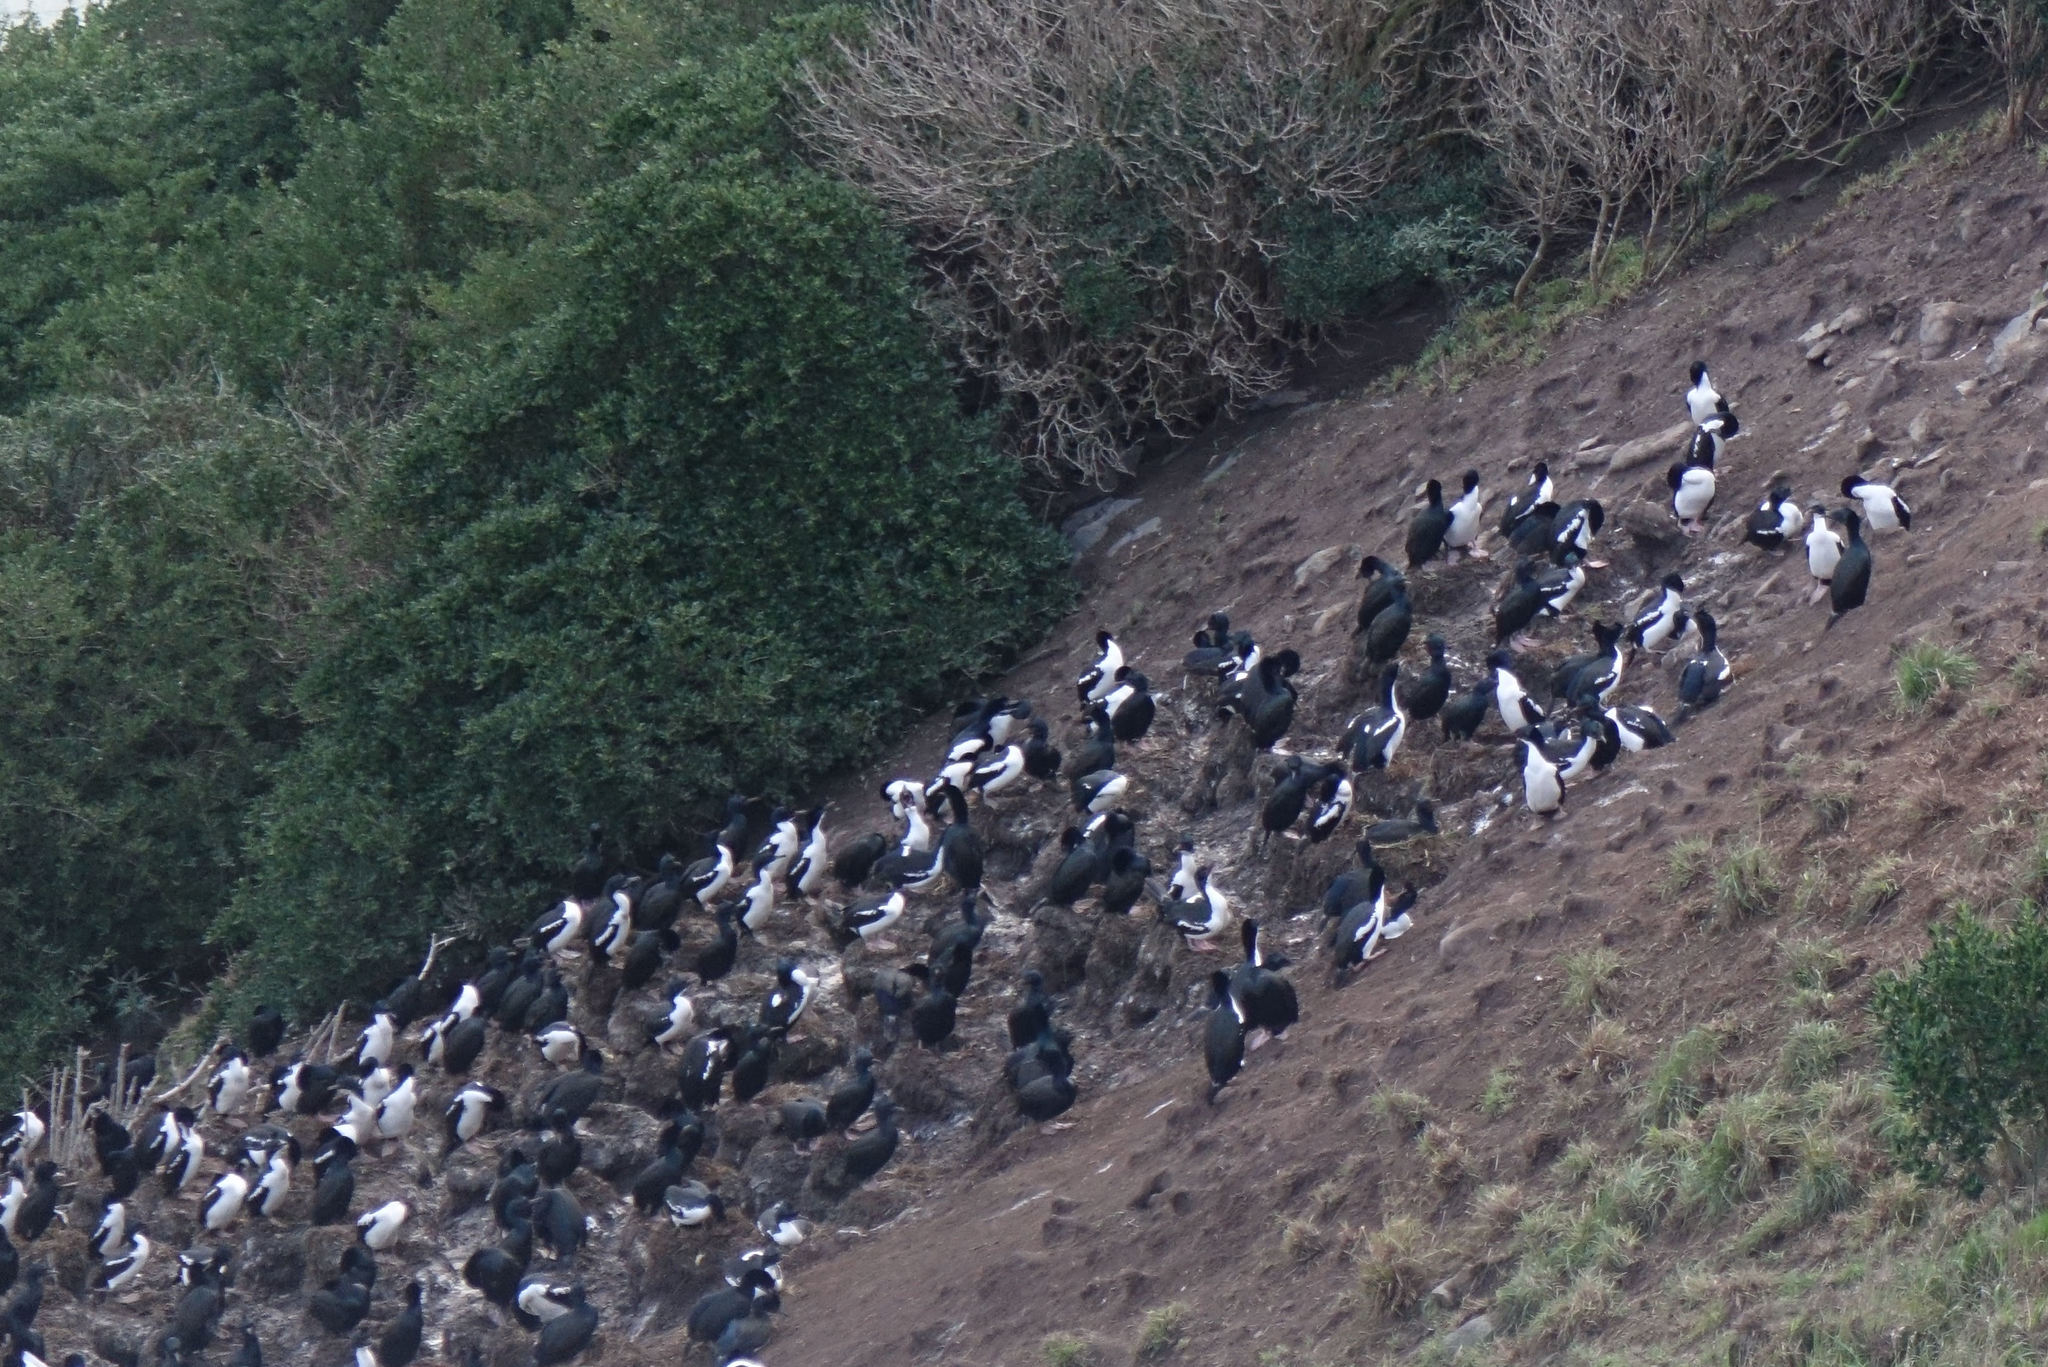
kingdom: Animalia
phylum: Chordata
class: Aves
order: Suliformes
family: Phalacrocoracidae
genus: Leucocarbo
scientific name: Leucocarbo chalconotus
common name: Stewart shag
